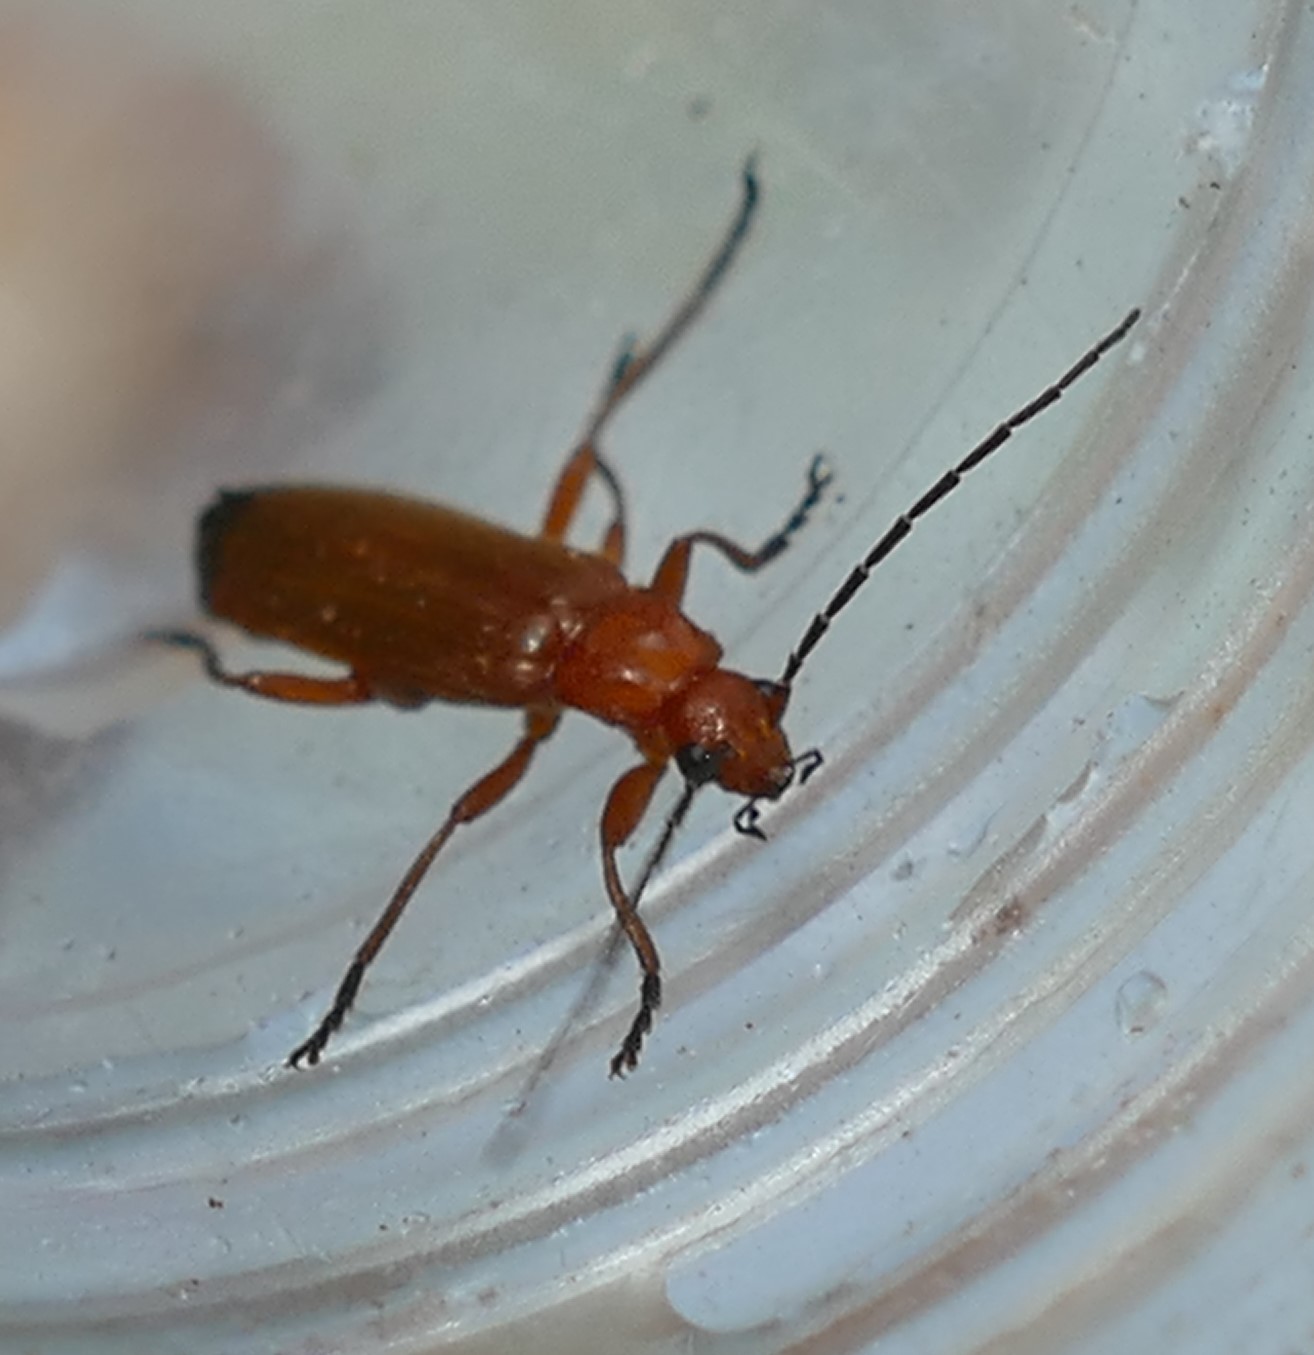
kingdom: Animalia
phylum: Arthropoda
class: Insecta
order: Coleoptera
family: Cantharidae
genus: Rhagonycha
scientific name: Rhagonycha fulva
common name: Common red soldier beetle
